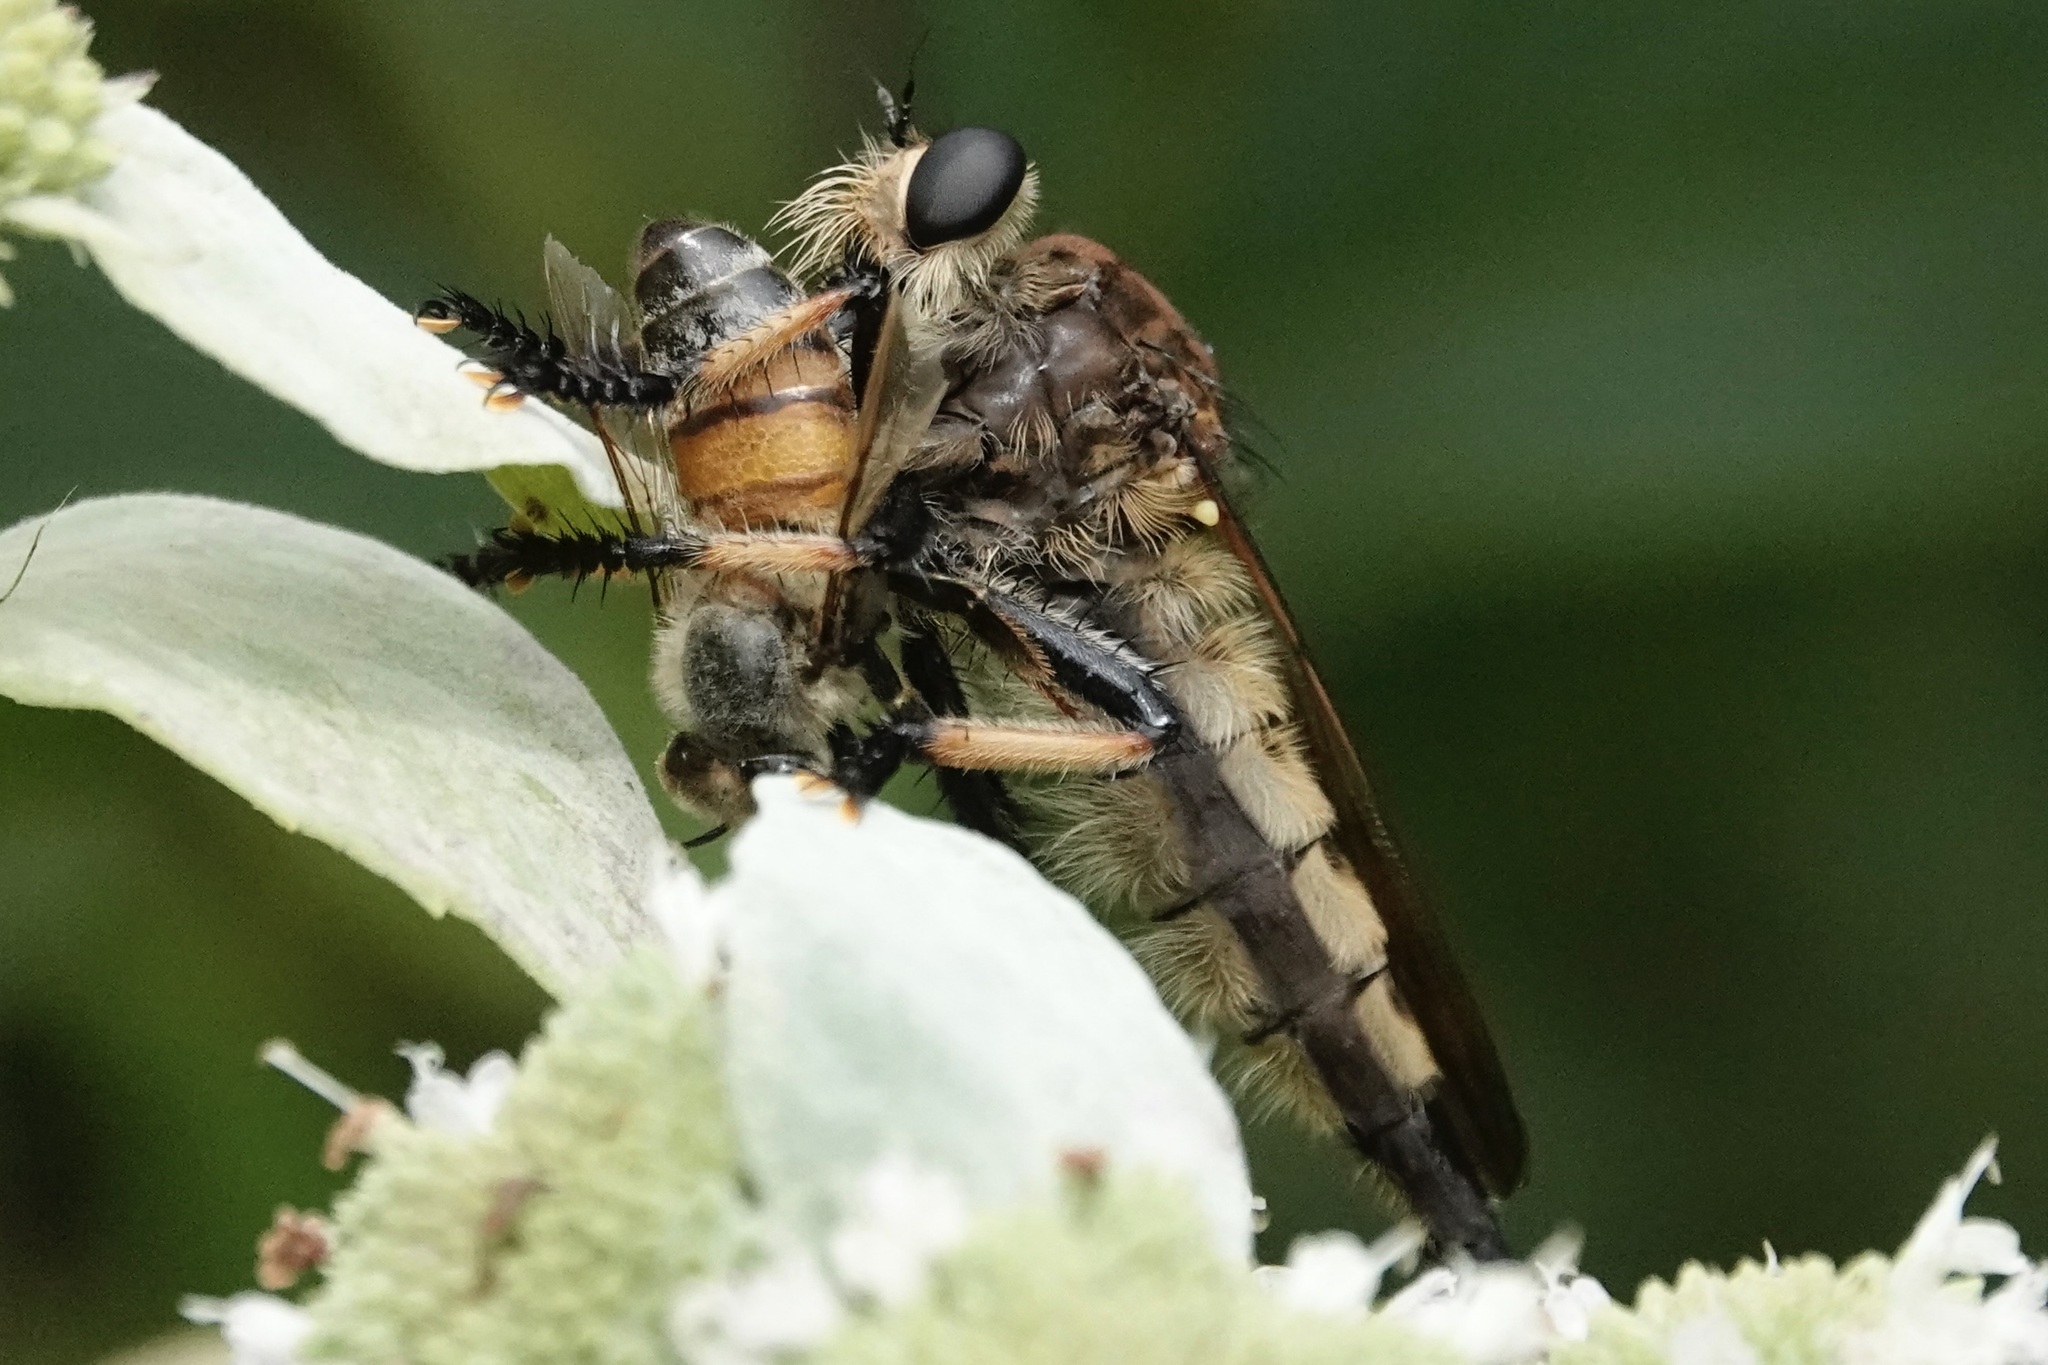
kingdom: Animalia
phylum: Arthropoda
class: Insecta
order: Diptera
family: Asilidae
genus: Promachus
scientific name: Promachus rufipes
